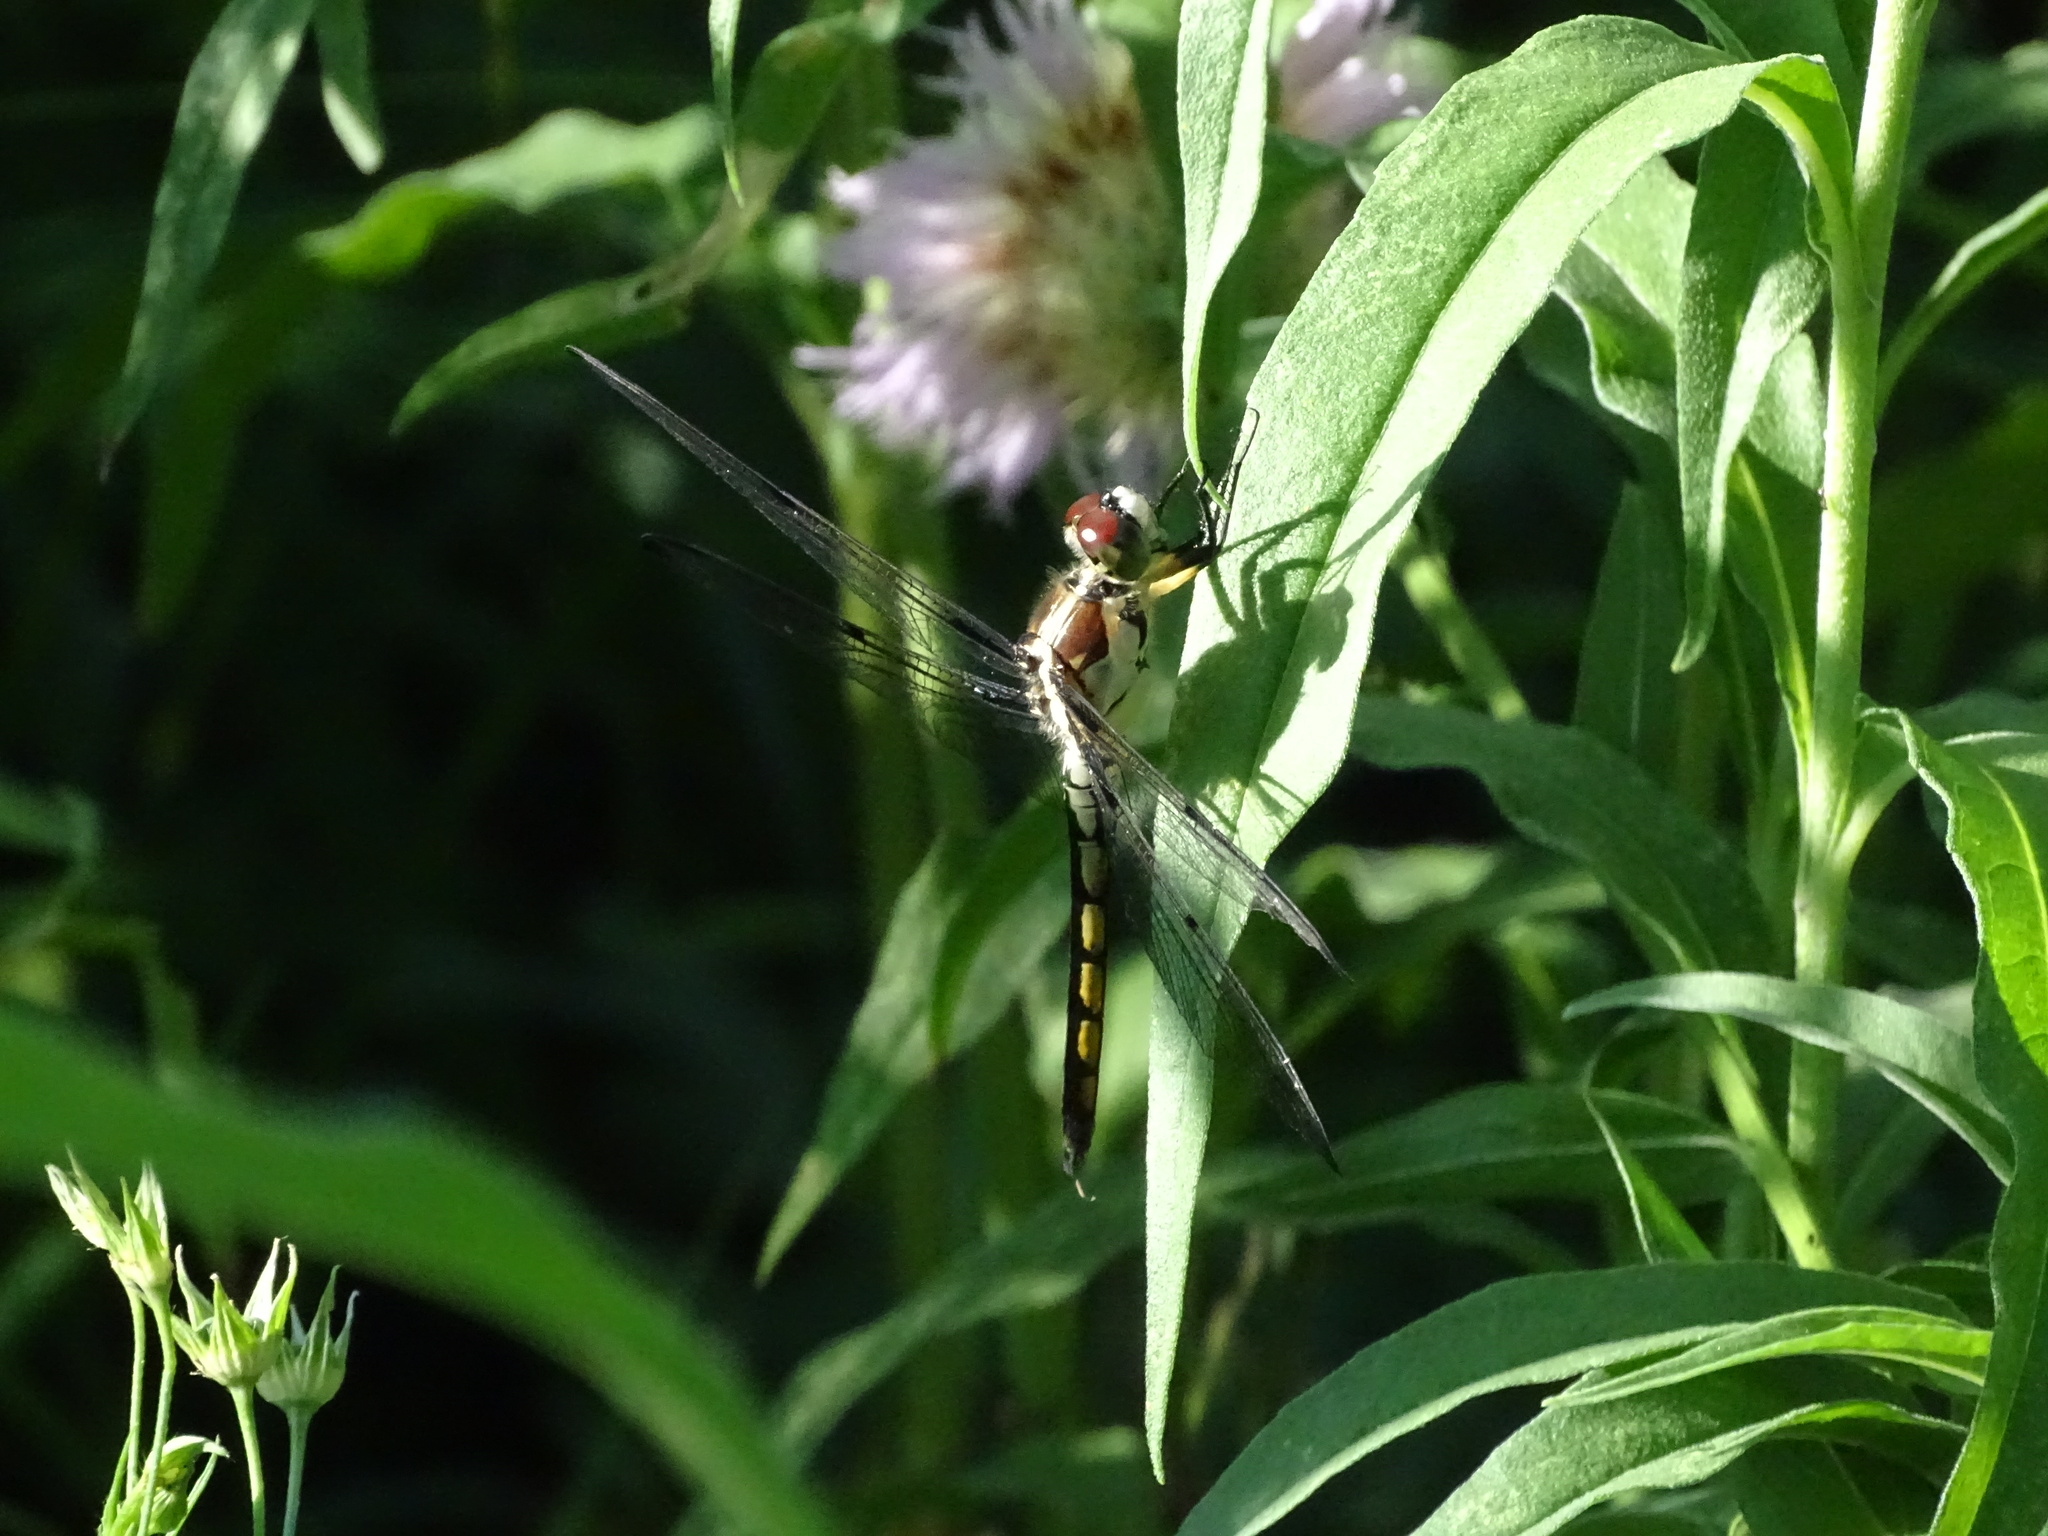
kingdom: Animalia
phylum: Arthropoda
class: Insecta
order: Odonata
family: Libellulidae
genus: Libellula
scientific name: Libellula vibrans
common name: Great blue skimmer
